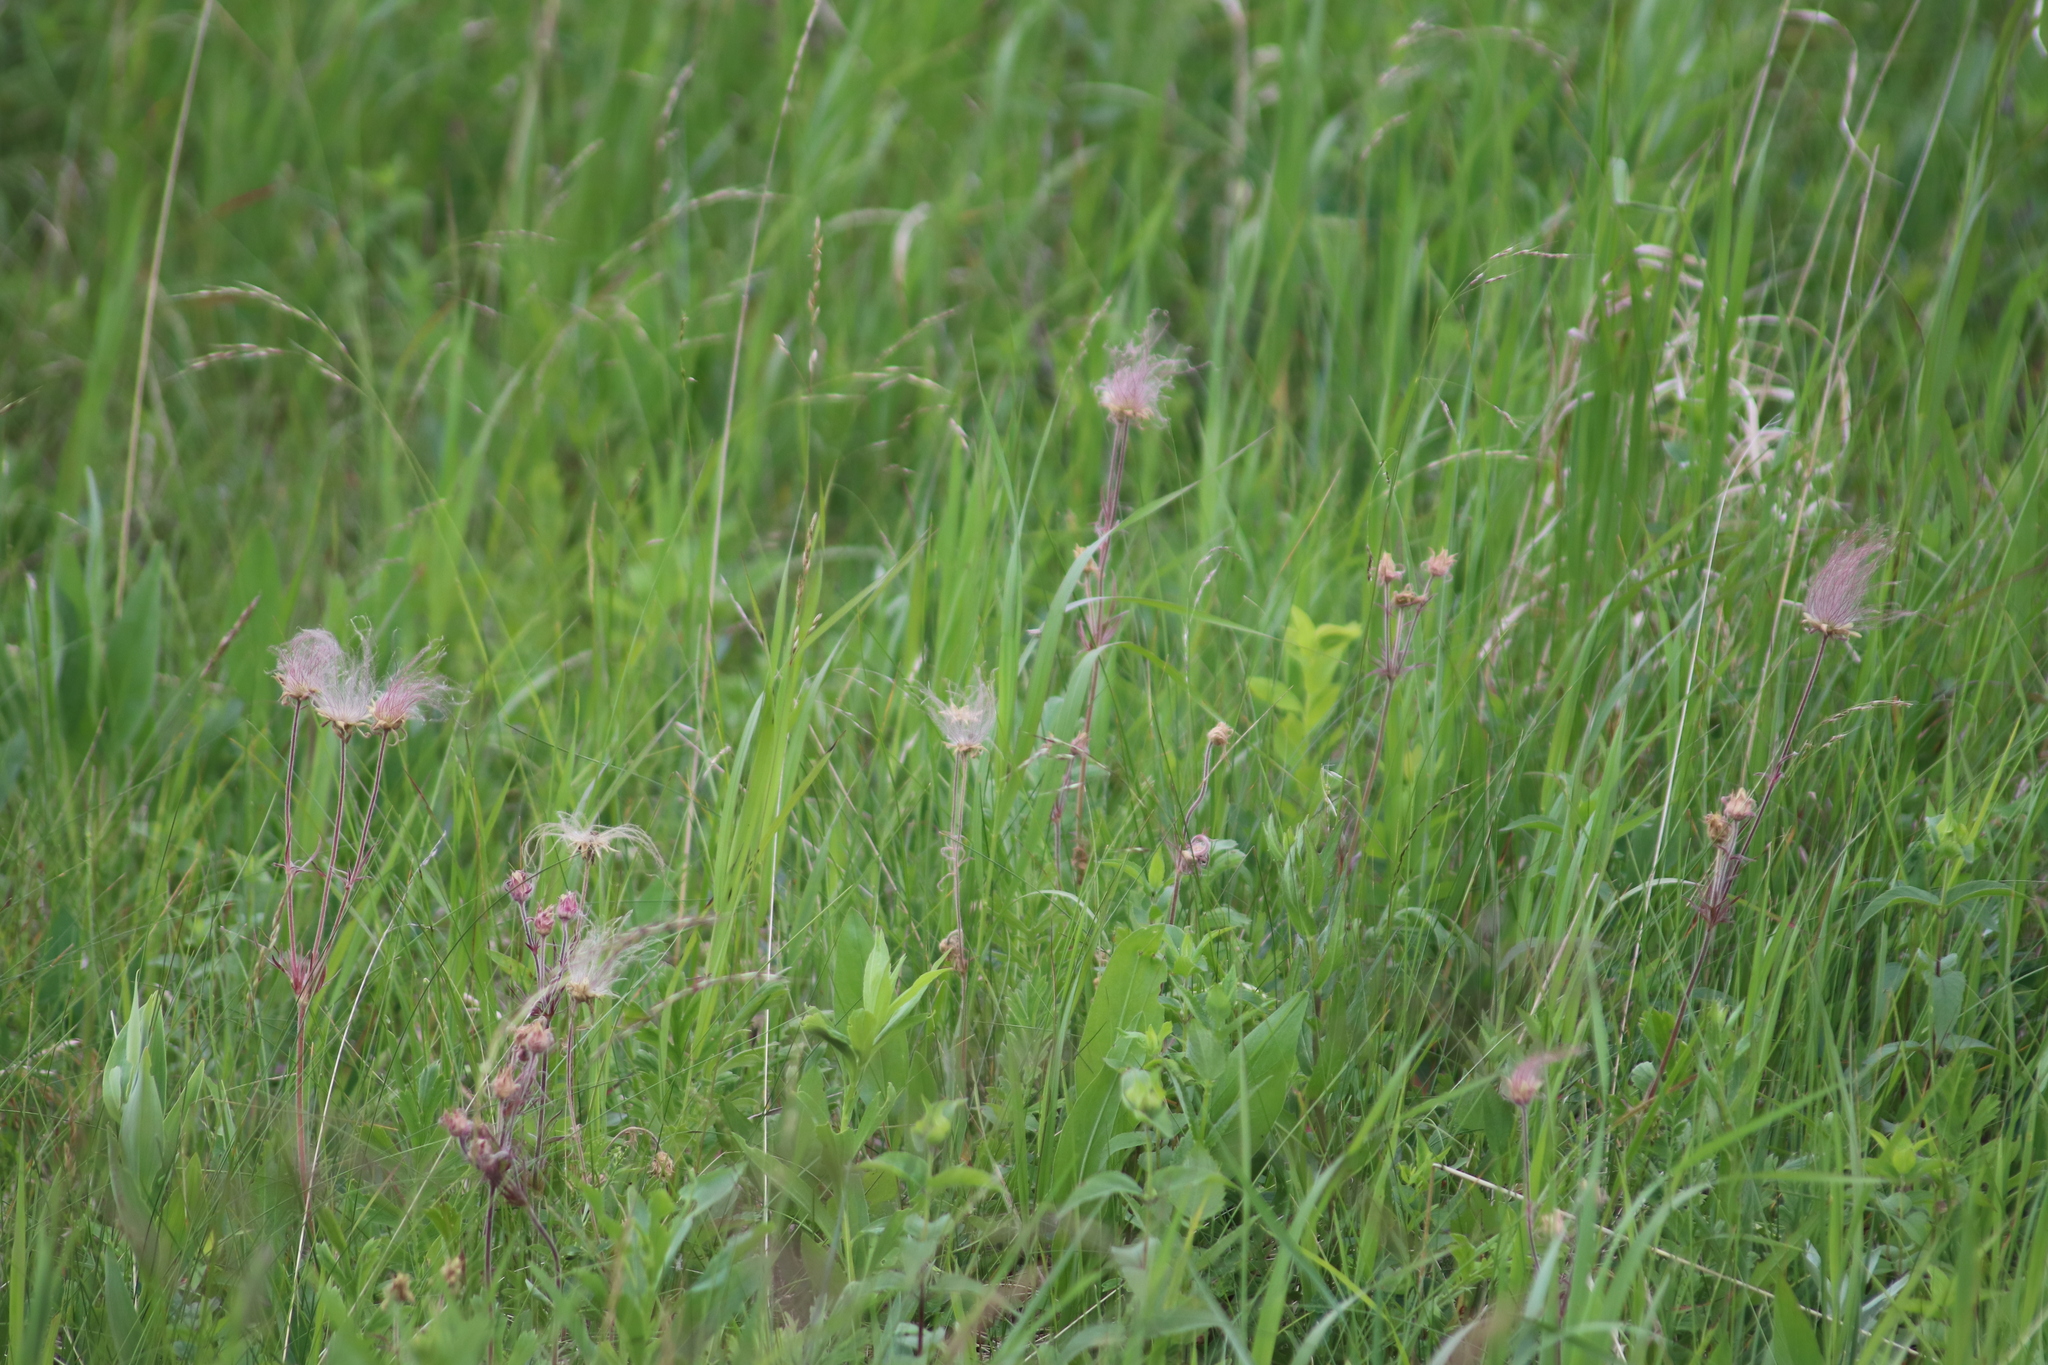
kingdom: Plantae
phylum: Tracheophyta
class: Magnoliopsida
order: Rosales
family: Rosaceae
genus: Geum
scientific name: Geum triflorum
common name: Old man's whiskers
